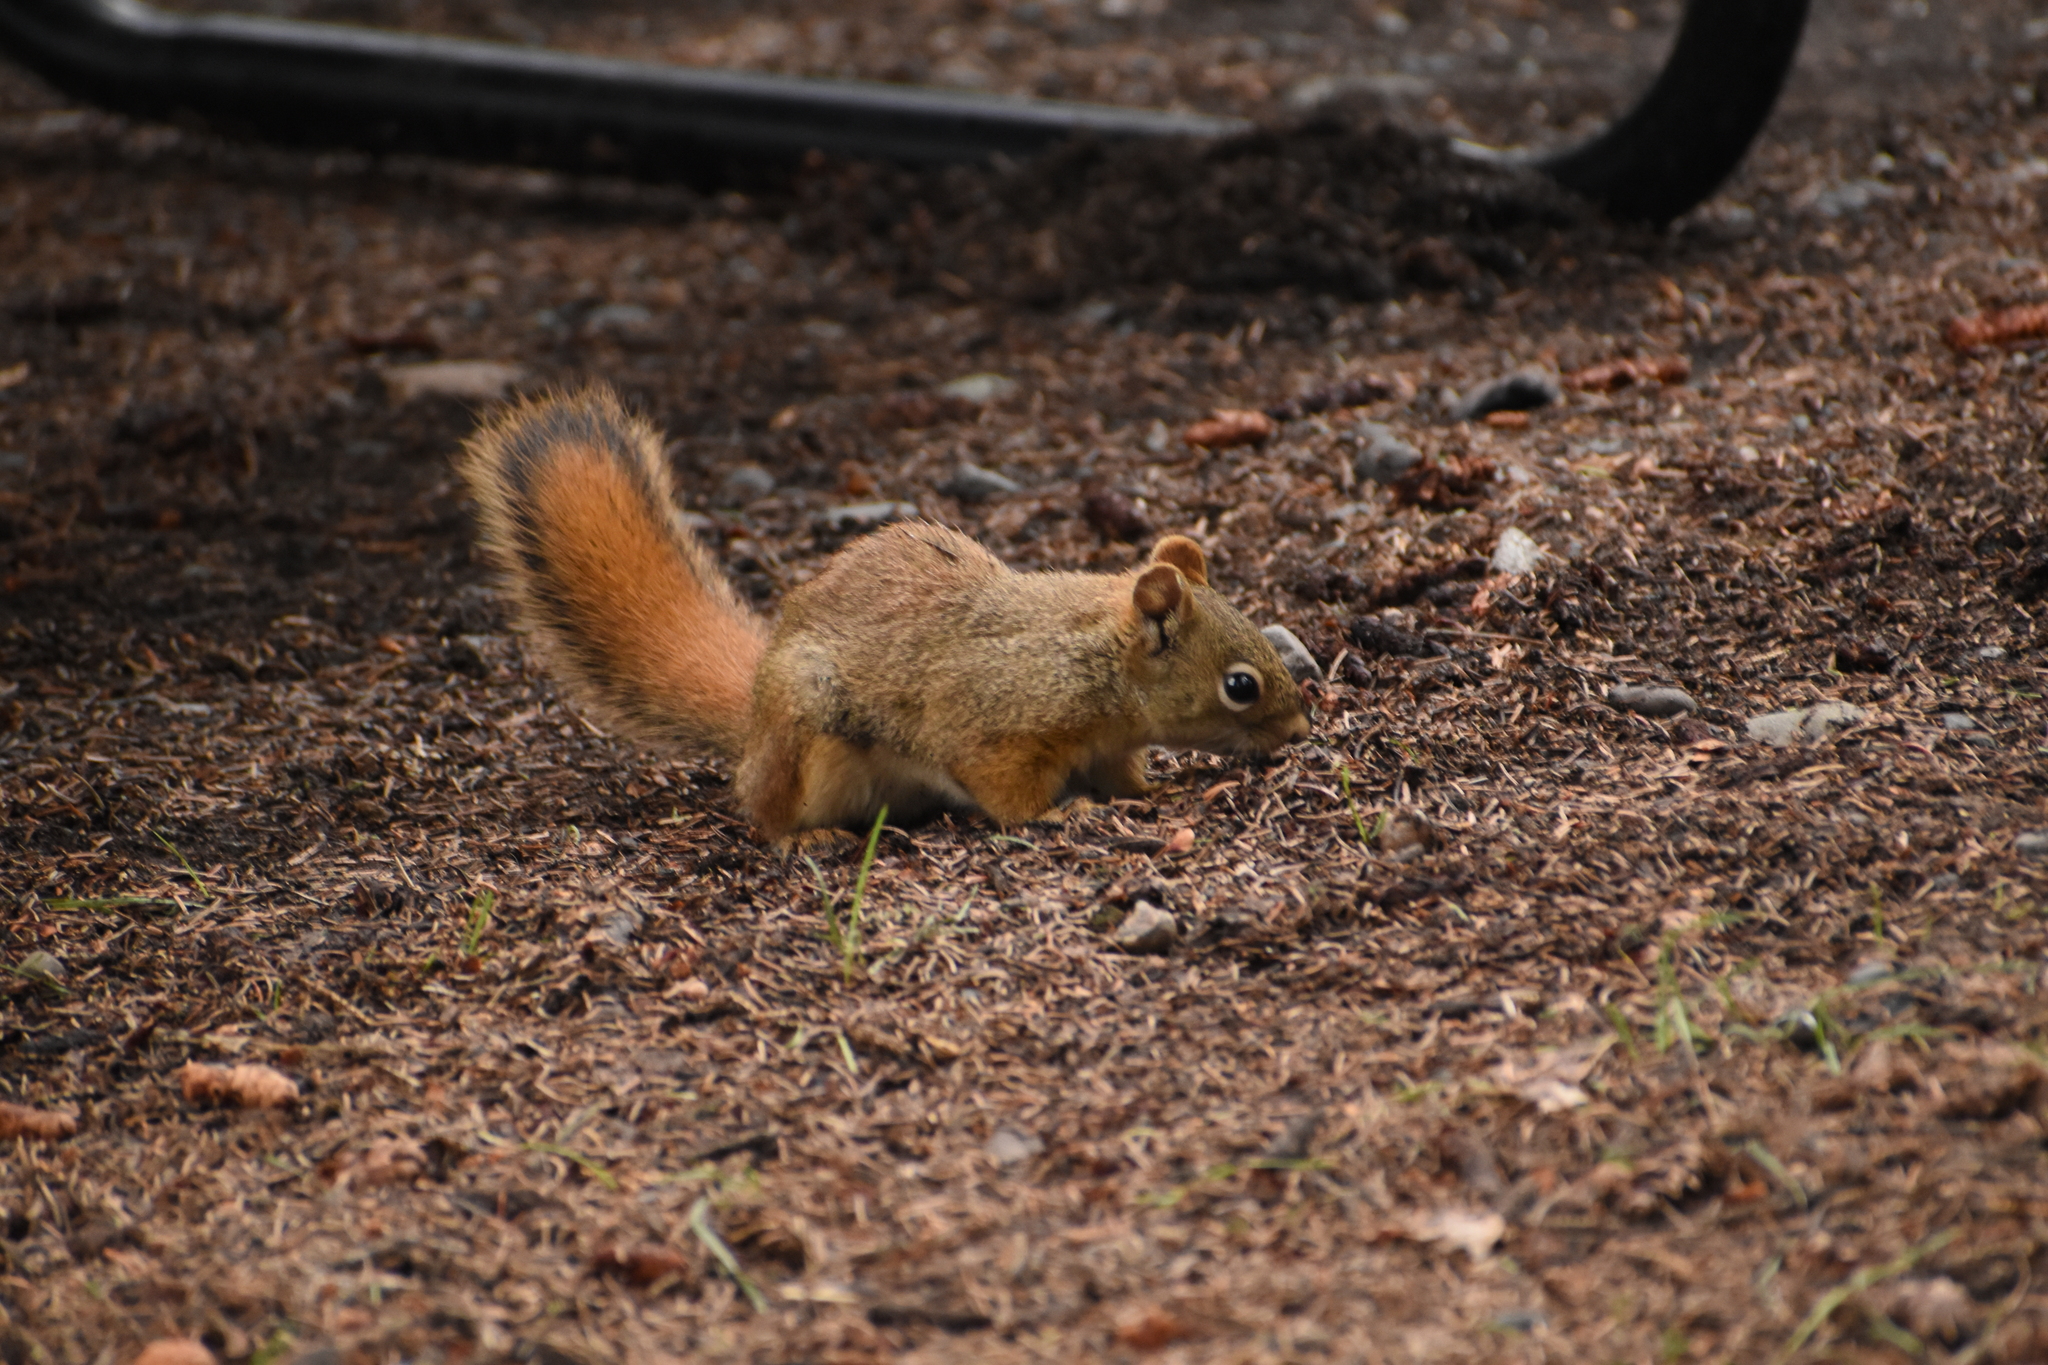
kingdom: Animalia
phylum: Chordata
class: Mammalia
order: Rodentia
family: Sciuridae
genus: Tamiasciurus
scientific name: Tamiasciurus hudsonicus
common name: Red squirrel
